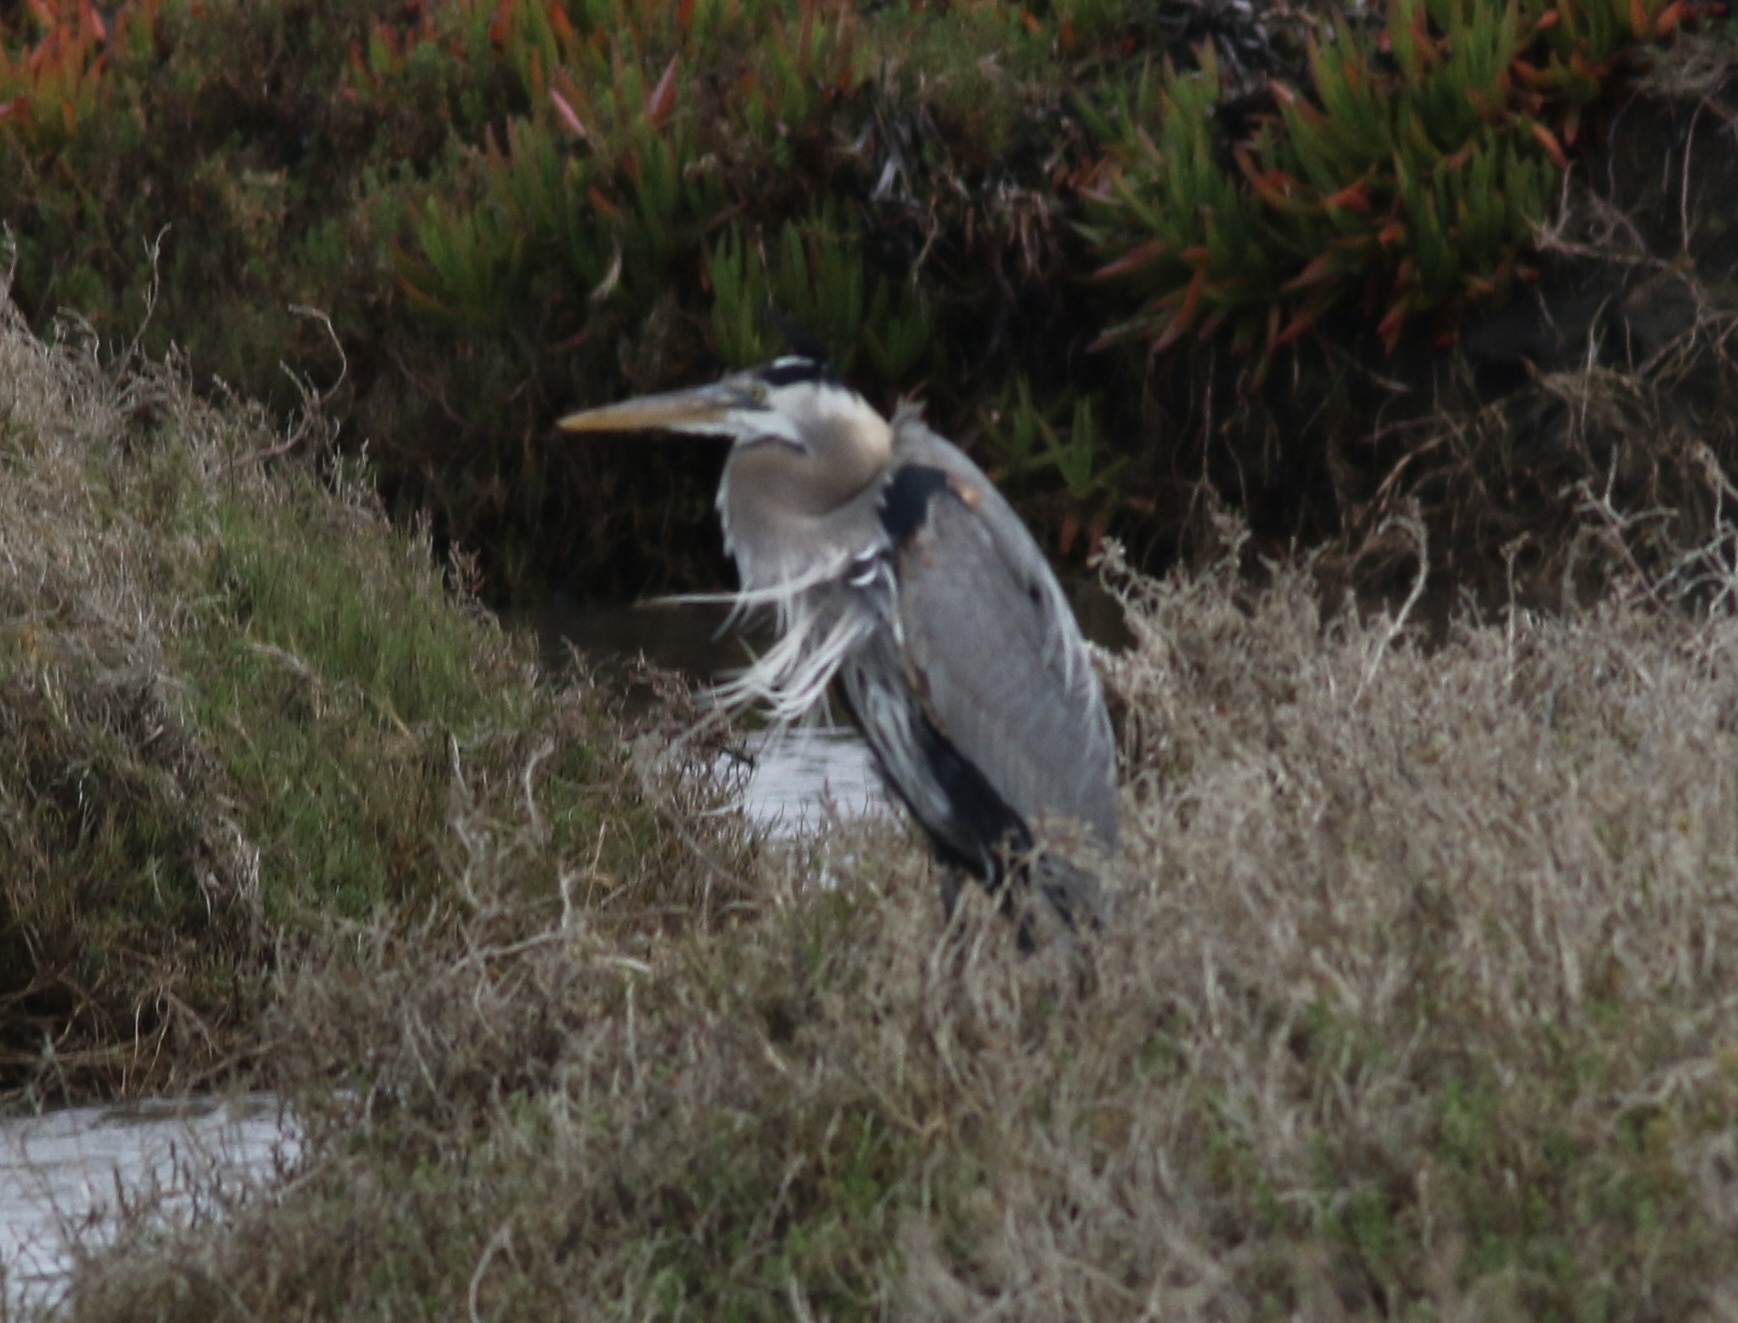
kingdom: Animalia
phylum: Chordata
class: Aves
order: Pelecaniformes
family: Ardeidae
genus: Ardea
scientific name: Ardea herodias
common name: Great blue heron
